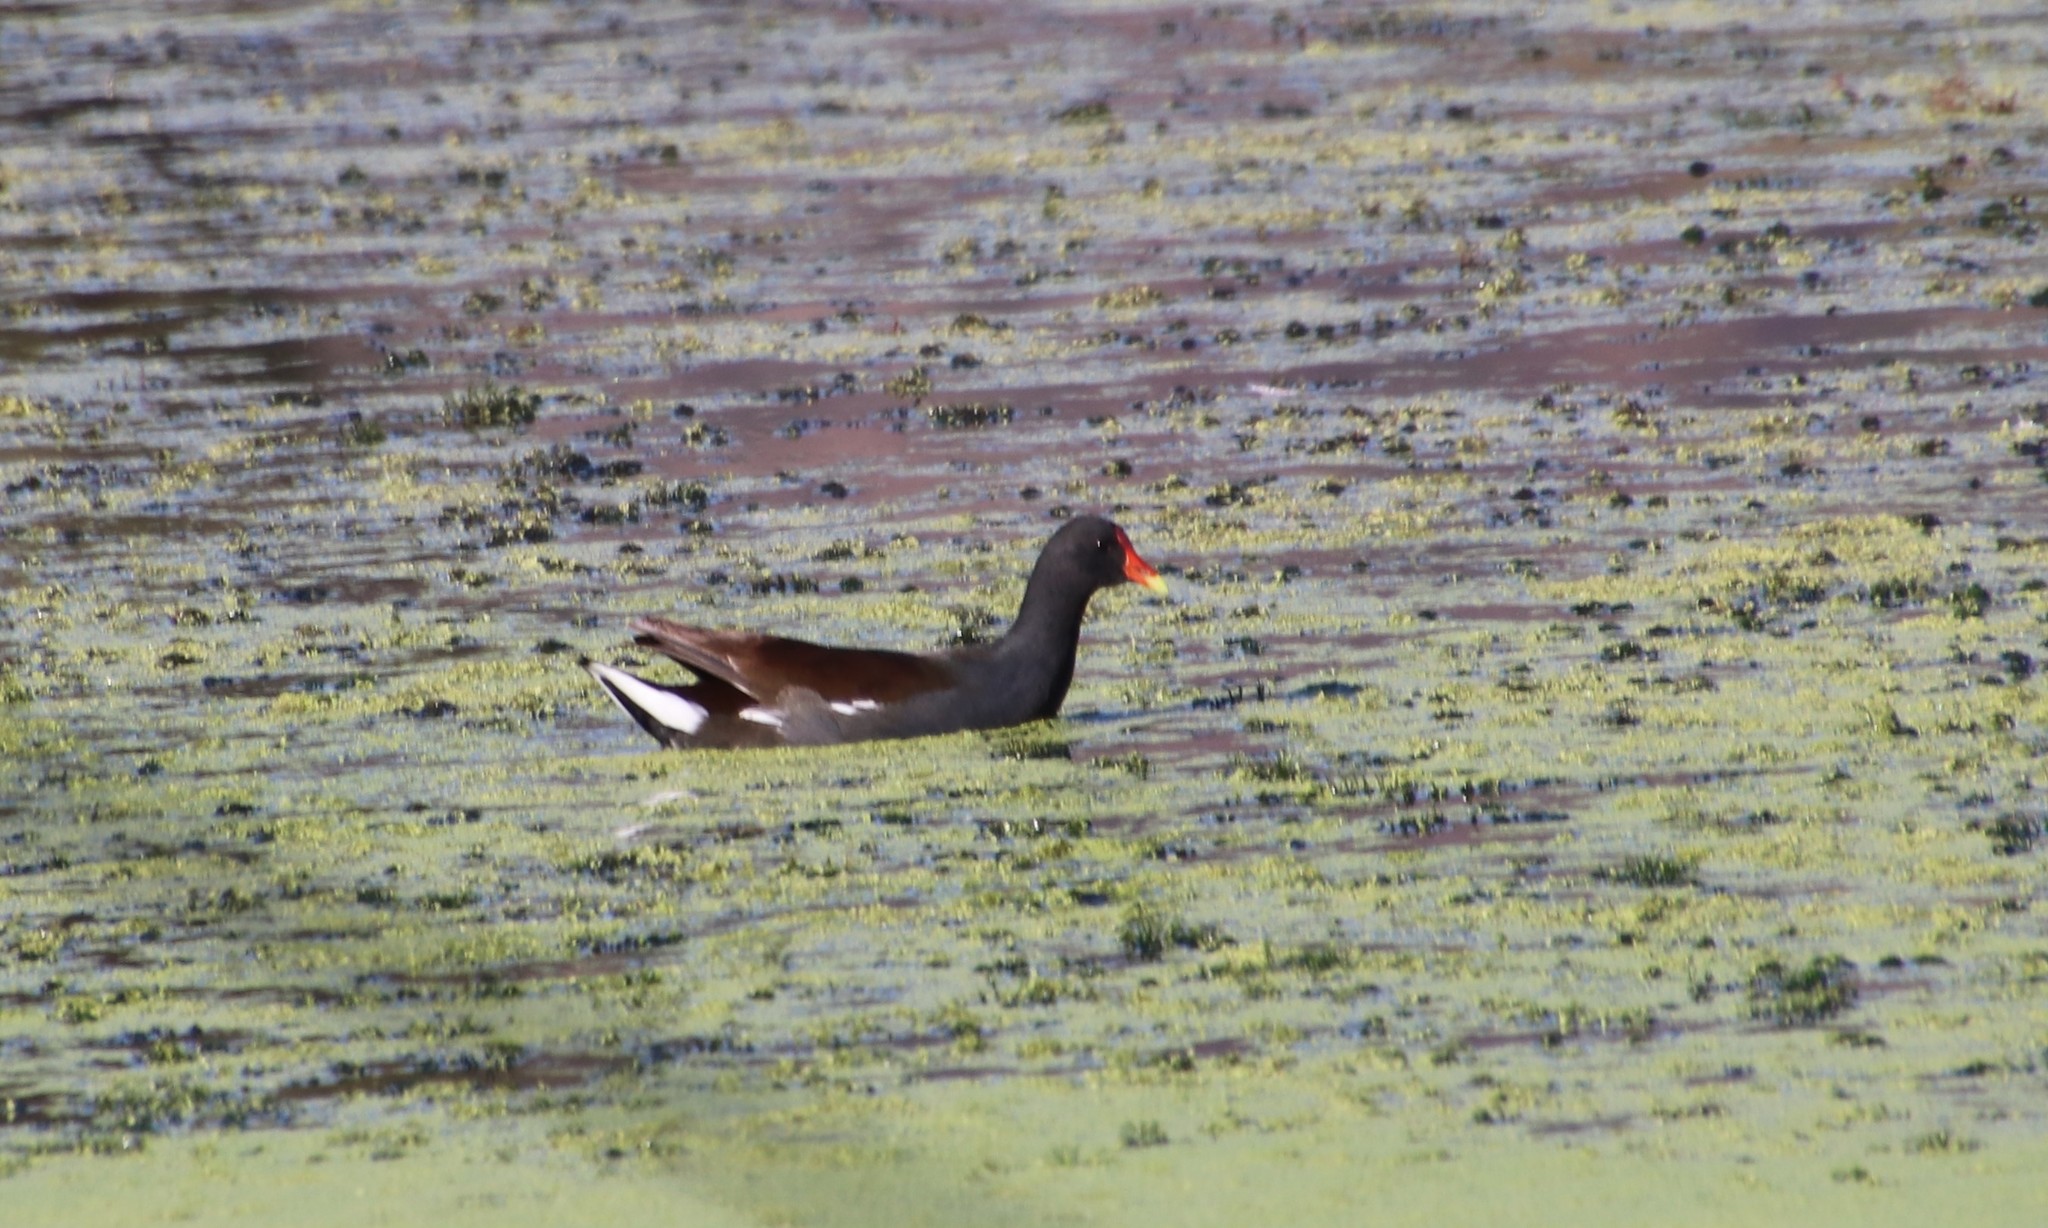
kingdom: Animalia
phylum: Chordata
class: Aves
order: Gruiformes
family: Rallidae
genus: Gallinula
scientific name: Gallinula chloropus
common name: Common moorhen
